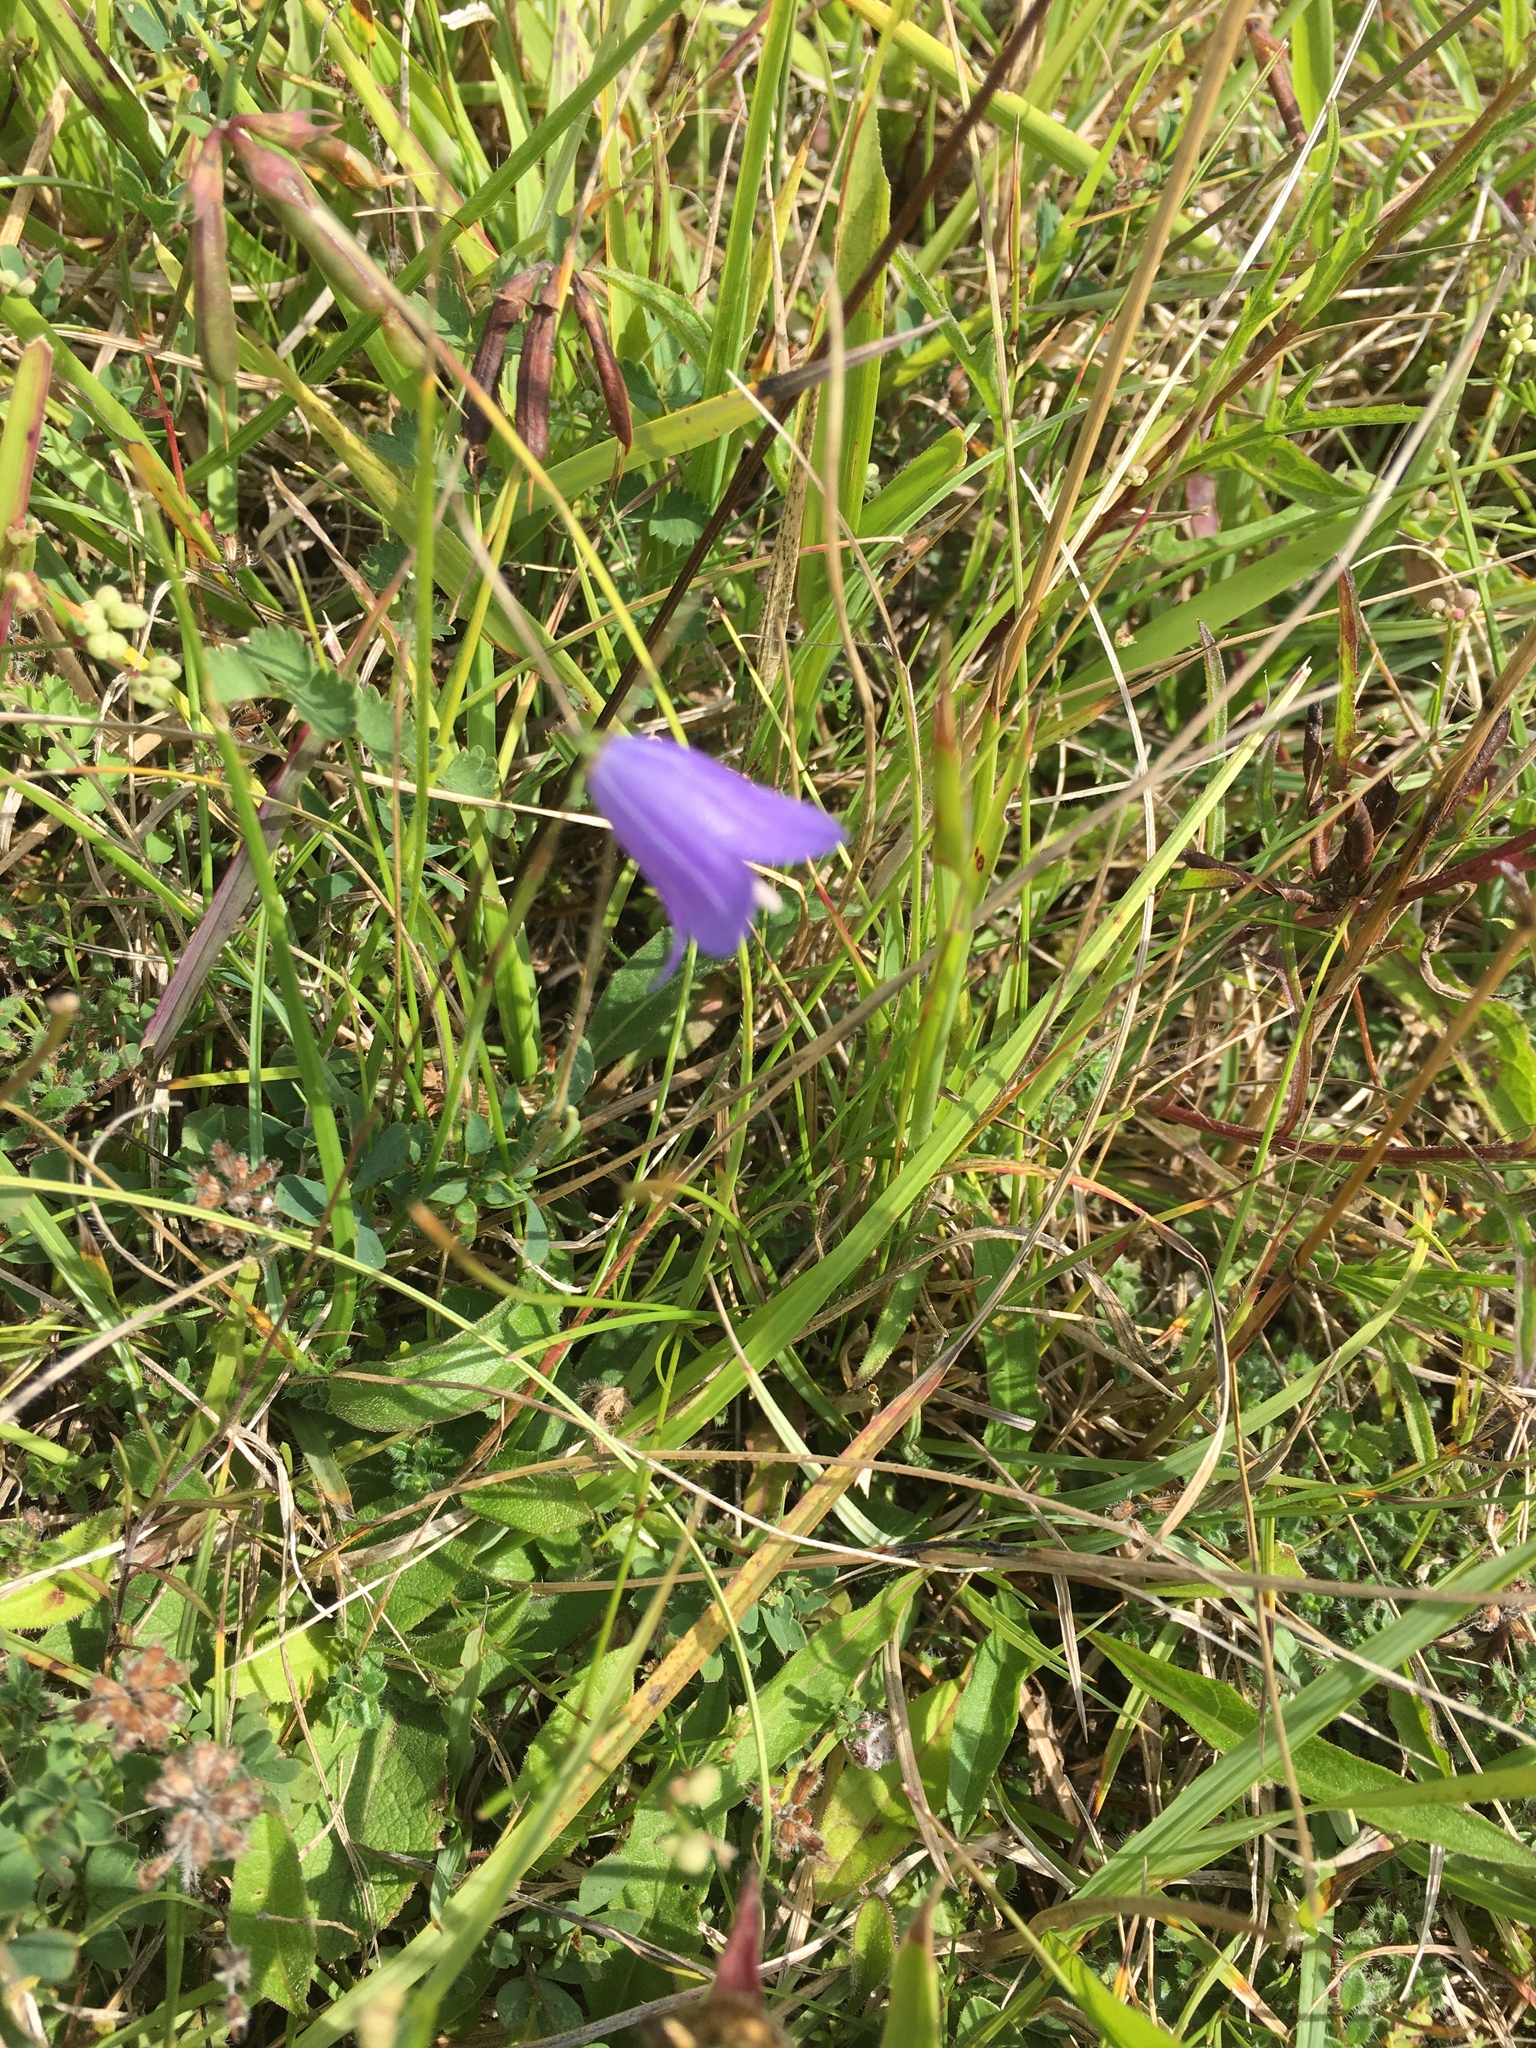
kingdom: Plantae
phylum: Tracheophyta
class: Magnoliopsida
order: Asterales
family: Campanulaceae
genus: Campanula
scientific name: Campanula rotundifolia
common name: Harebell
